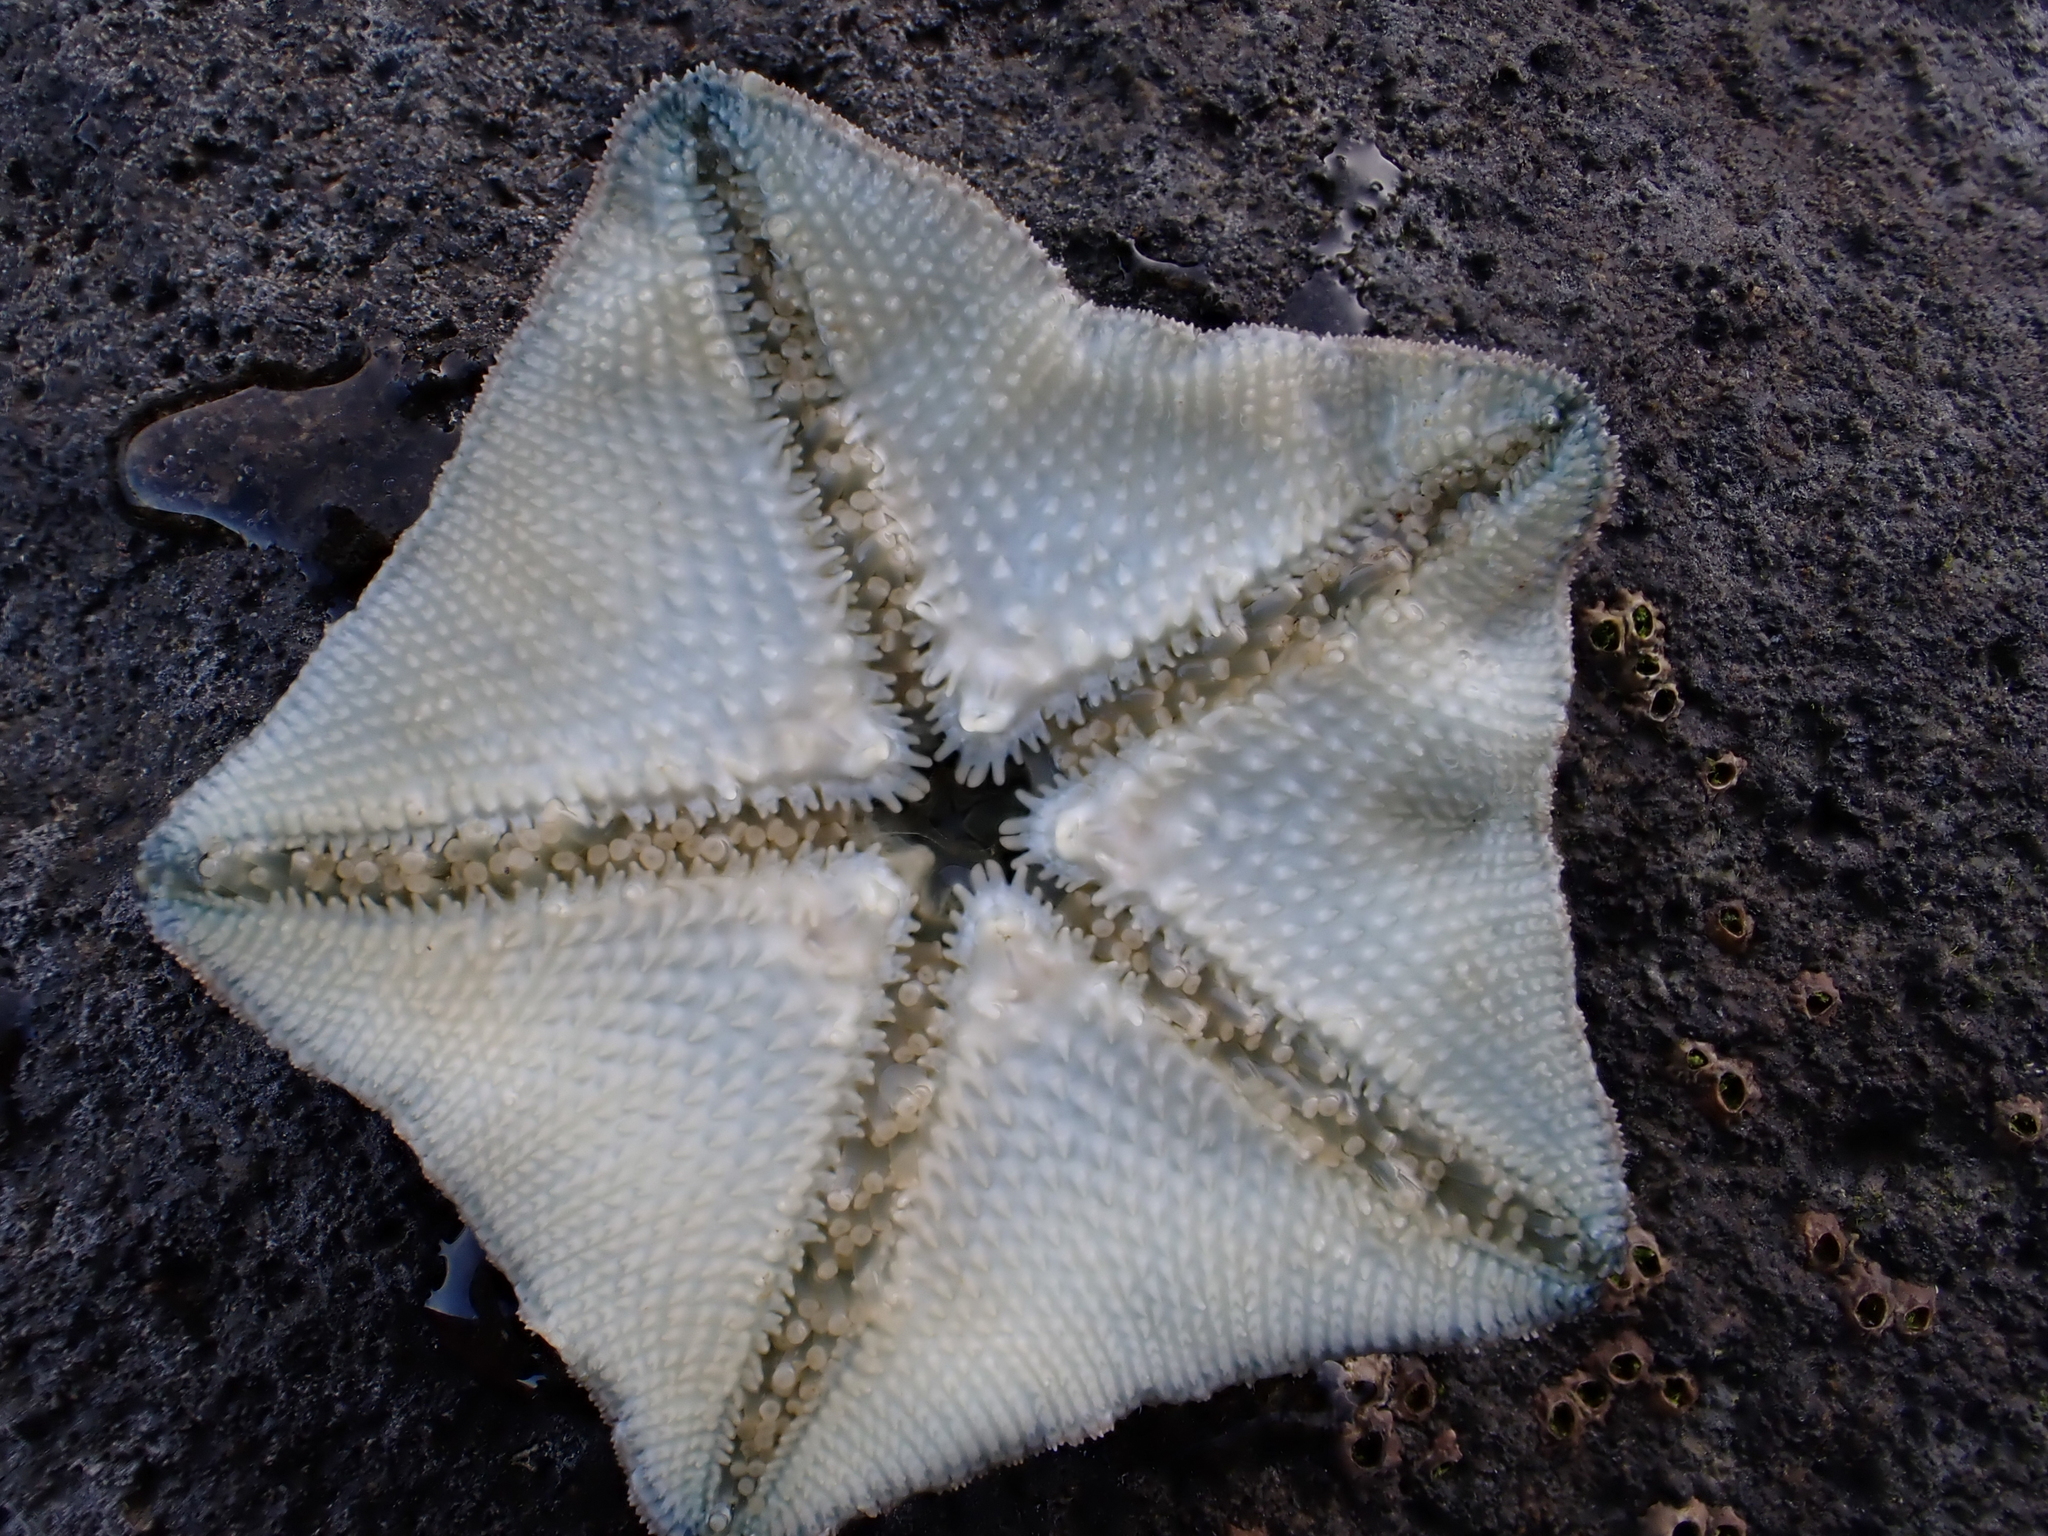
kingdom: Animalia
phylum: Echinodermata
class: Asteroidea
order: Valvatida
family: Asterinidae
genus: Patiriella
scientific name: Patiriella regularis
